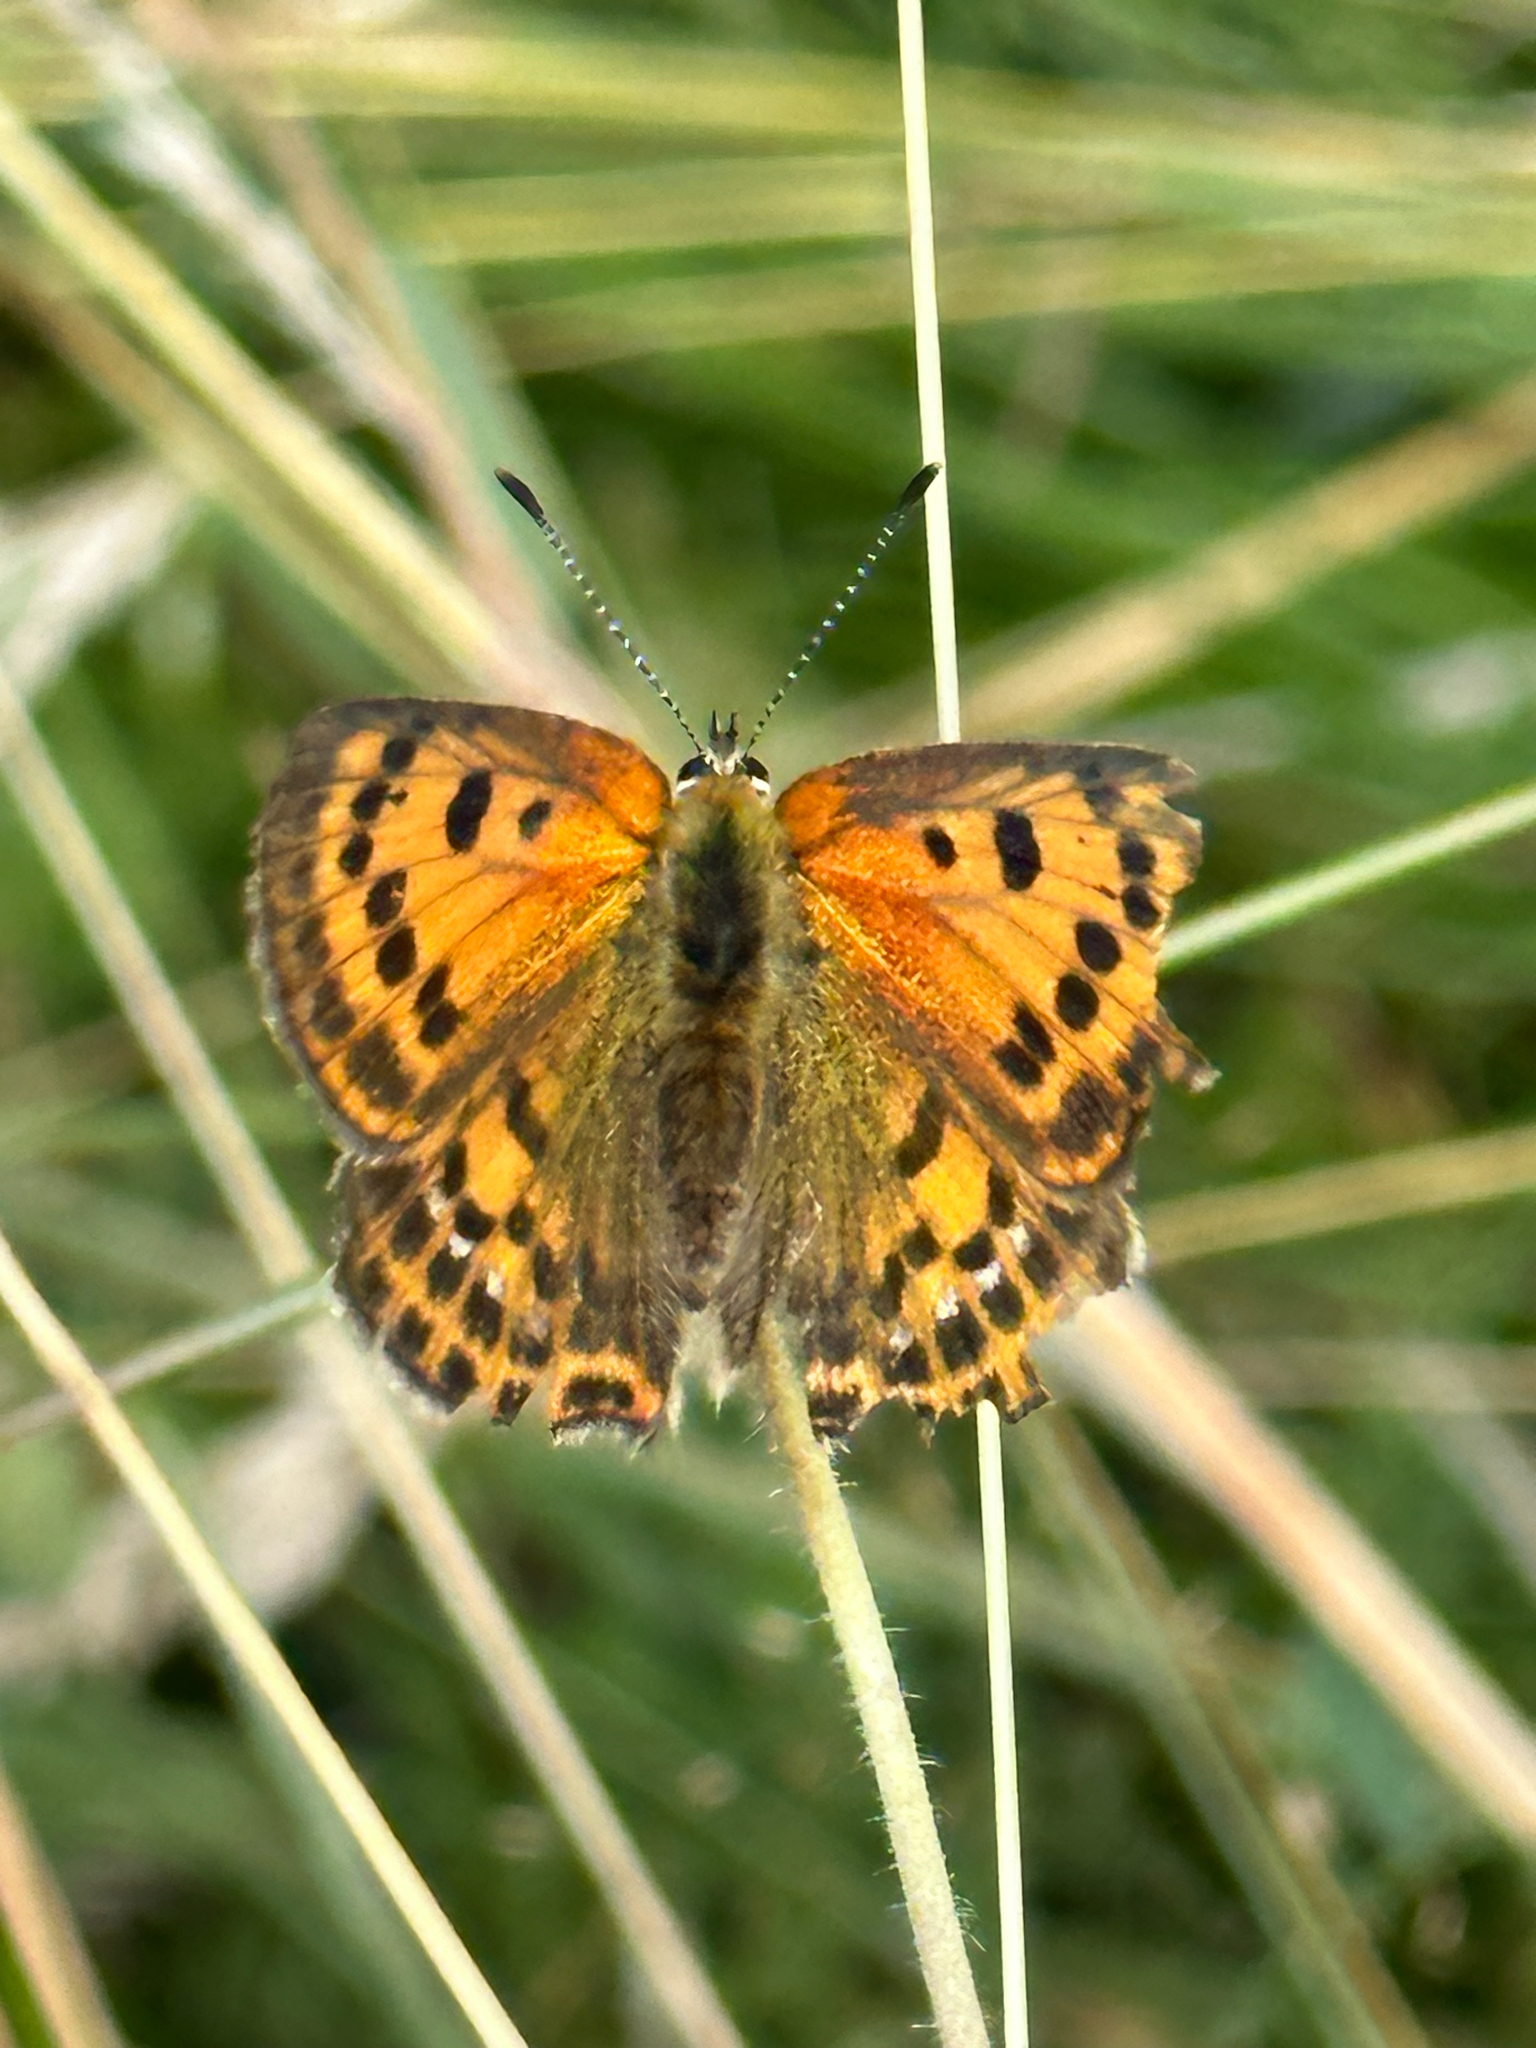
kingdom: Animalia
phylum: Arthropoda
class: Insecta
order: Lepidoptera
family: Lycaenidae
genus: Lycaena
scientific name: Lycaena virgaureae
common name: Scarce copper
